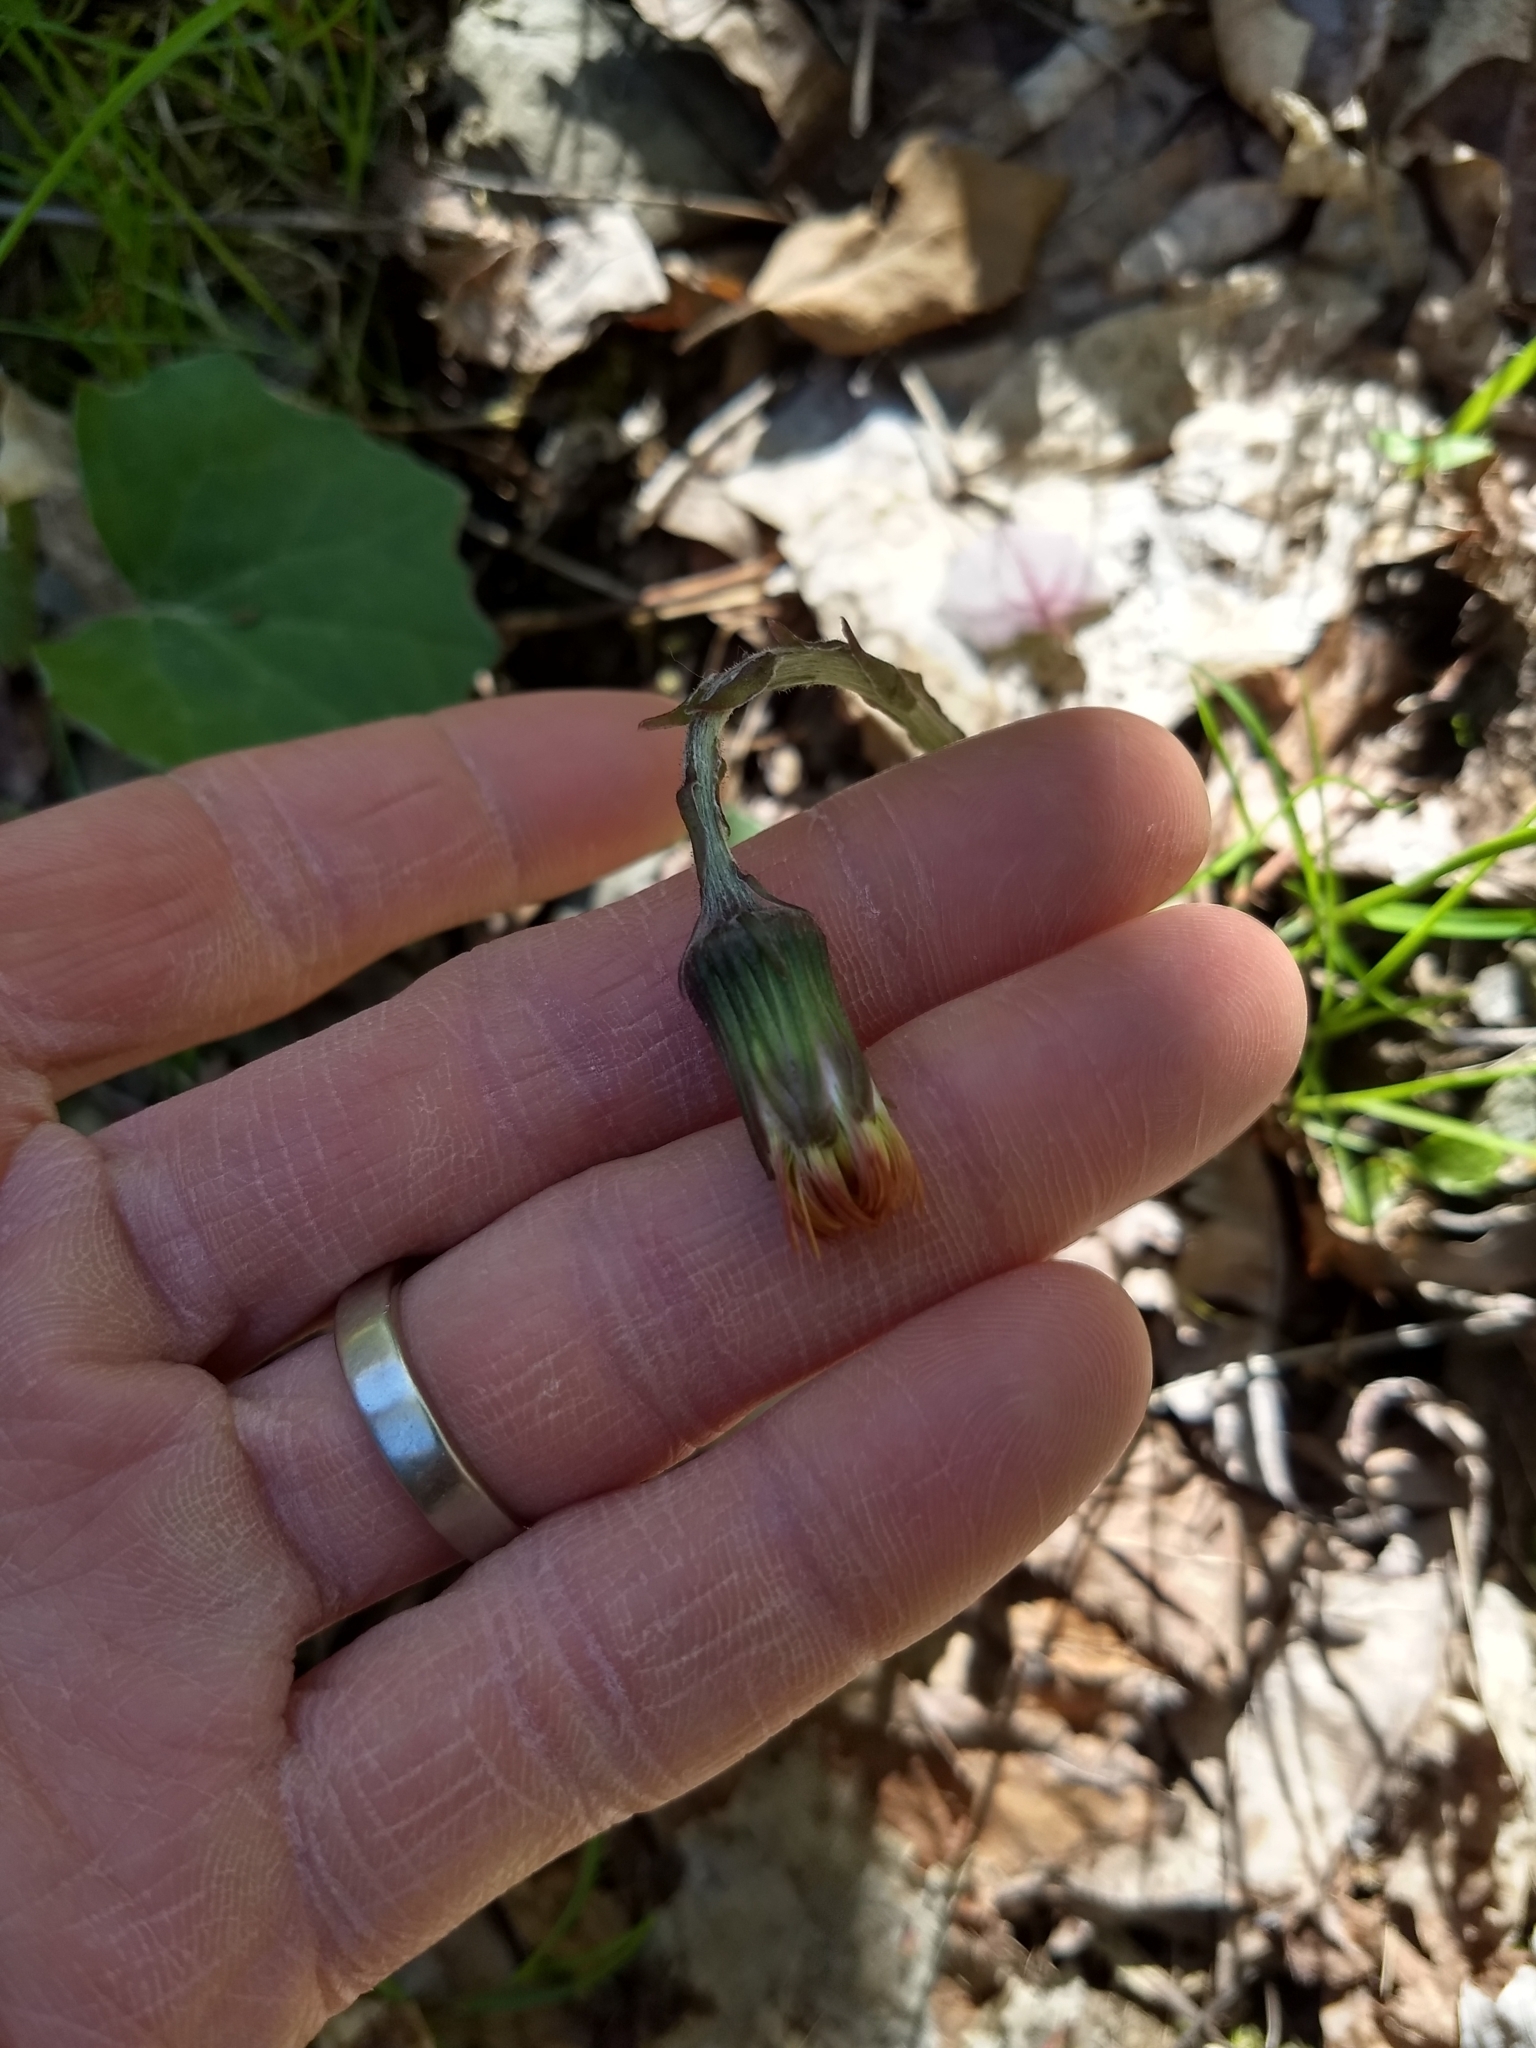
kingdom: Plantae
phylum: Tracheophyta
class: Magnoliopsida
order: Asterales
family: Asteraceae
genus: Tussilago
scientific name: Tussilago farfara
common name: Coltsfoot
